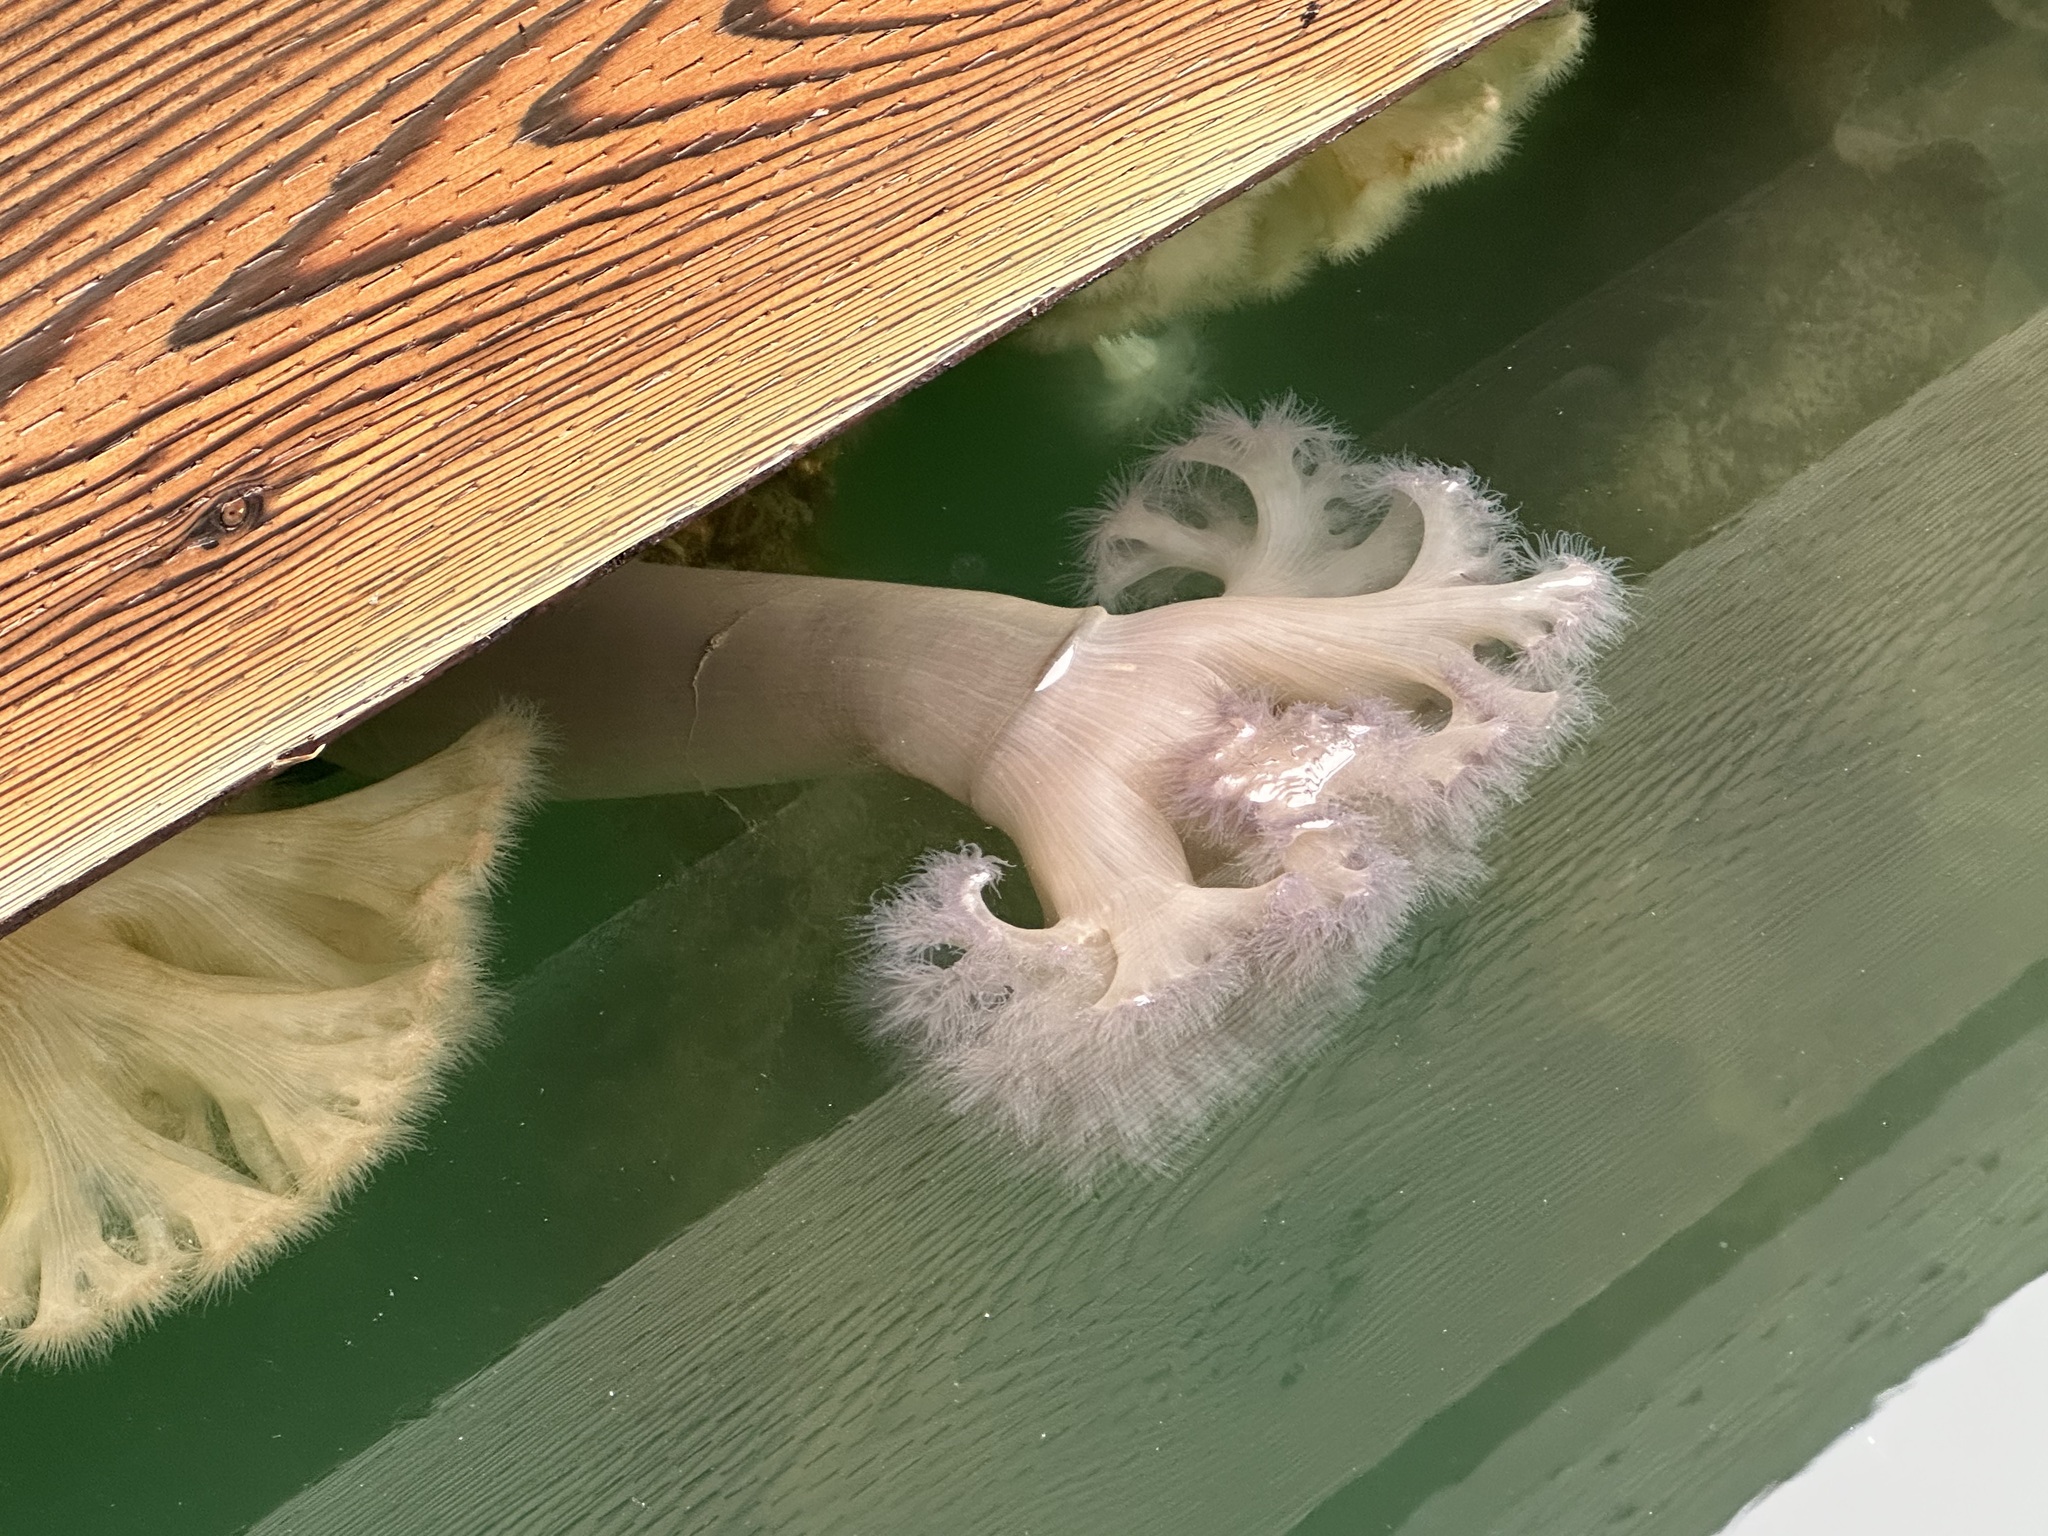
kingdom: Animalia
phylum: Cnidaria
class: Anthozoa
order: Actiniaria
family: Metridiidae
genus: Metridium
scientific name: Metridium farcimen
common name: Gigantic anemone
